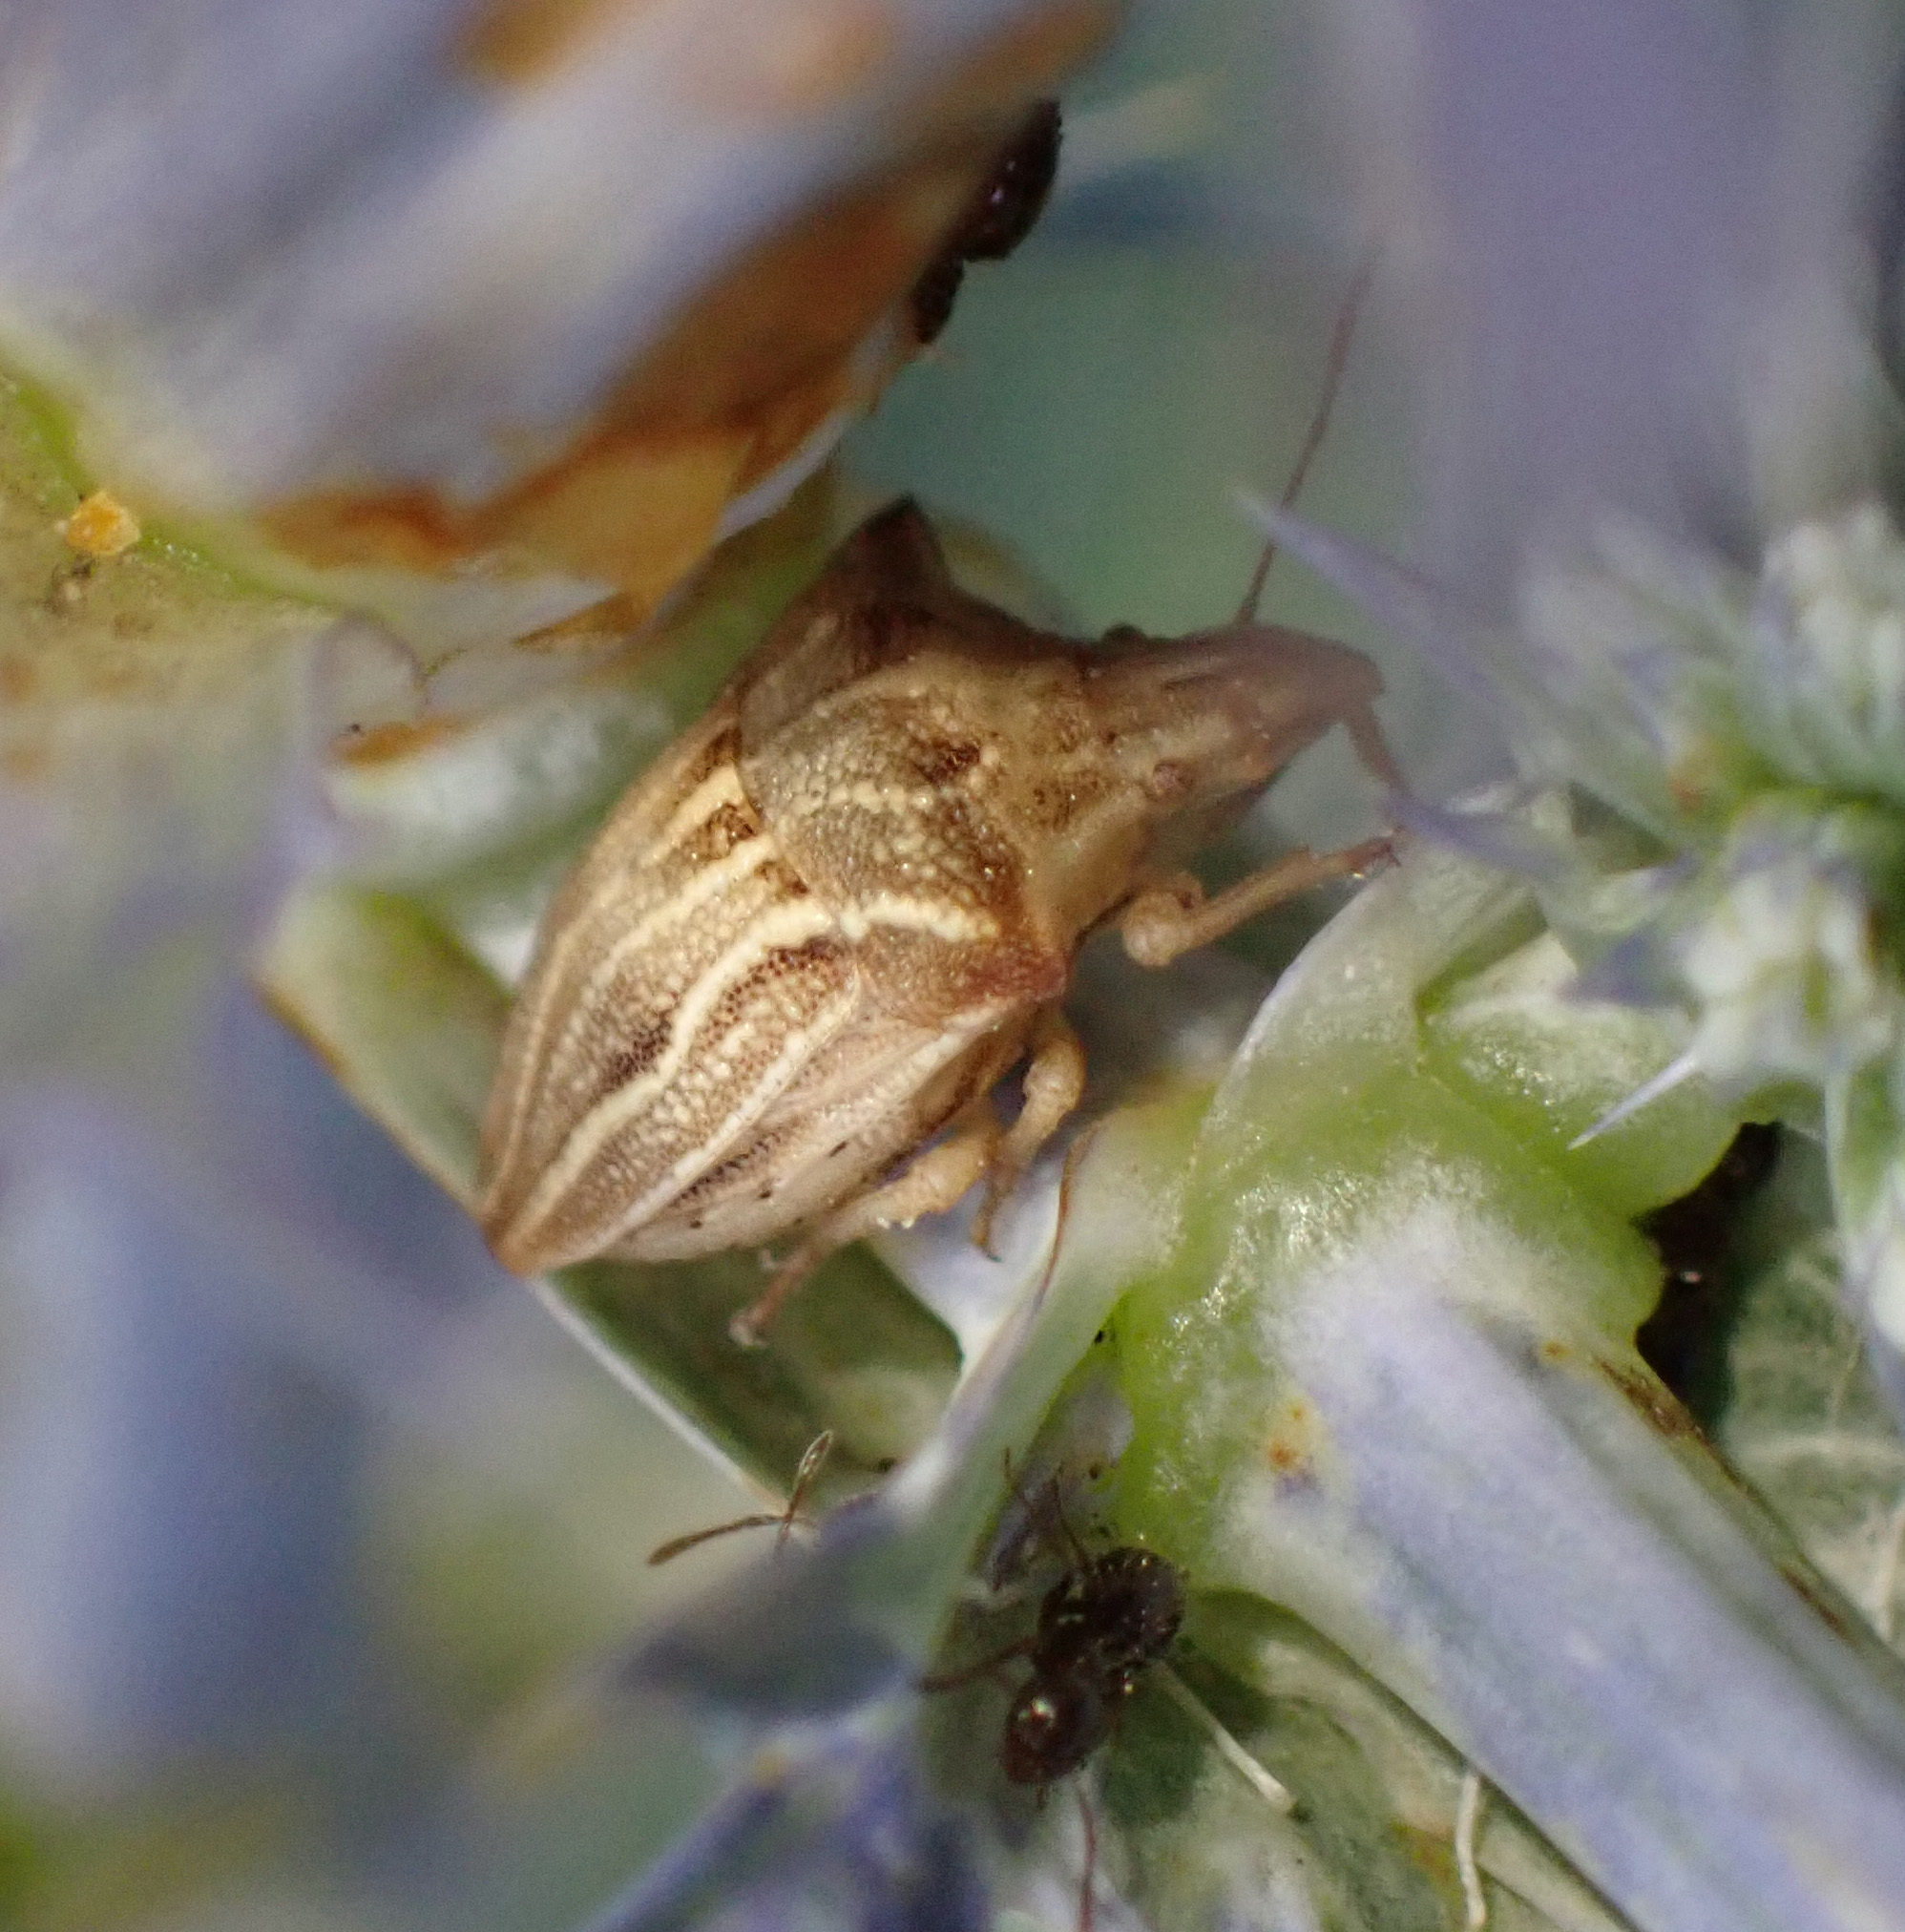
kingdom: Animalia
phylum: Arthropoda
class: Insecta
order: Hemiptera
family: Pentatomidae
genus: Ancyrosoma
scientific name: Ancyrosoma leucogrammes
